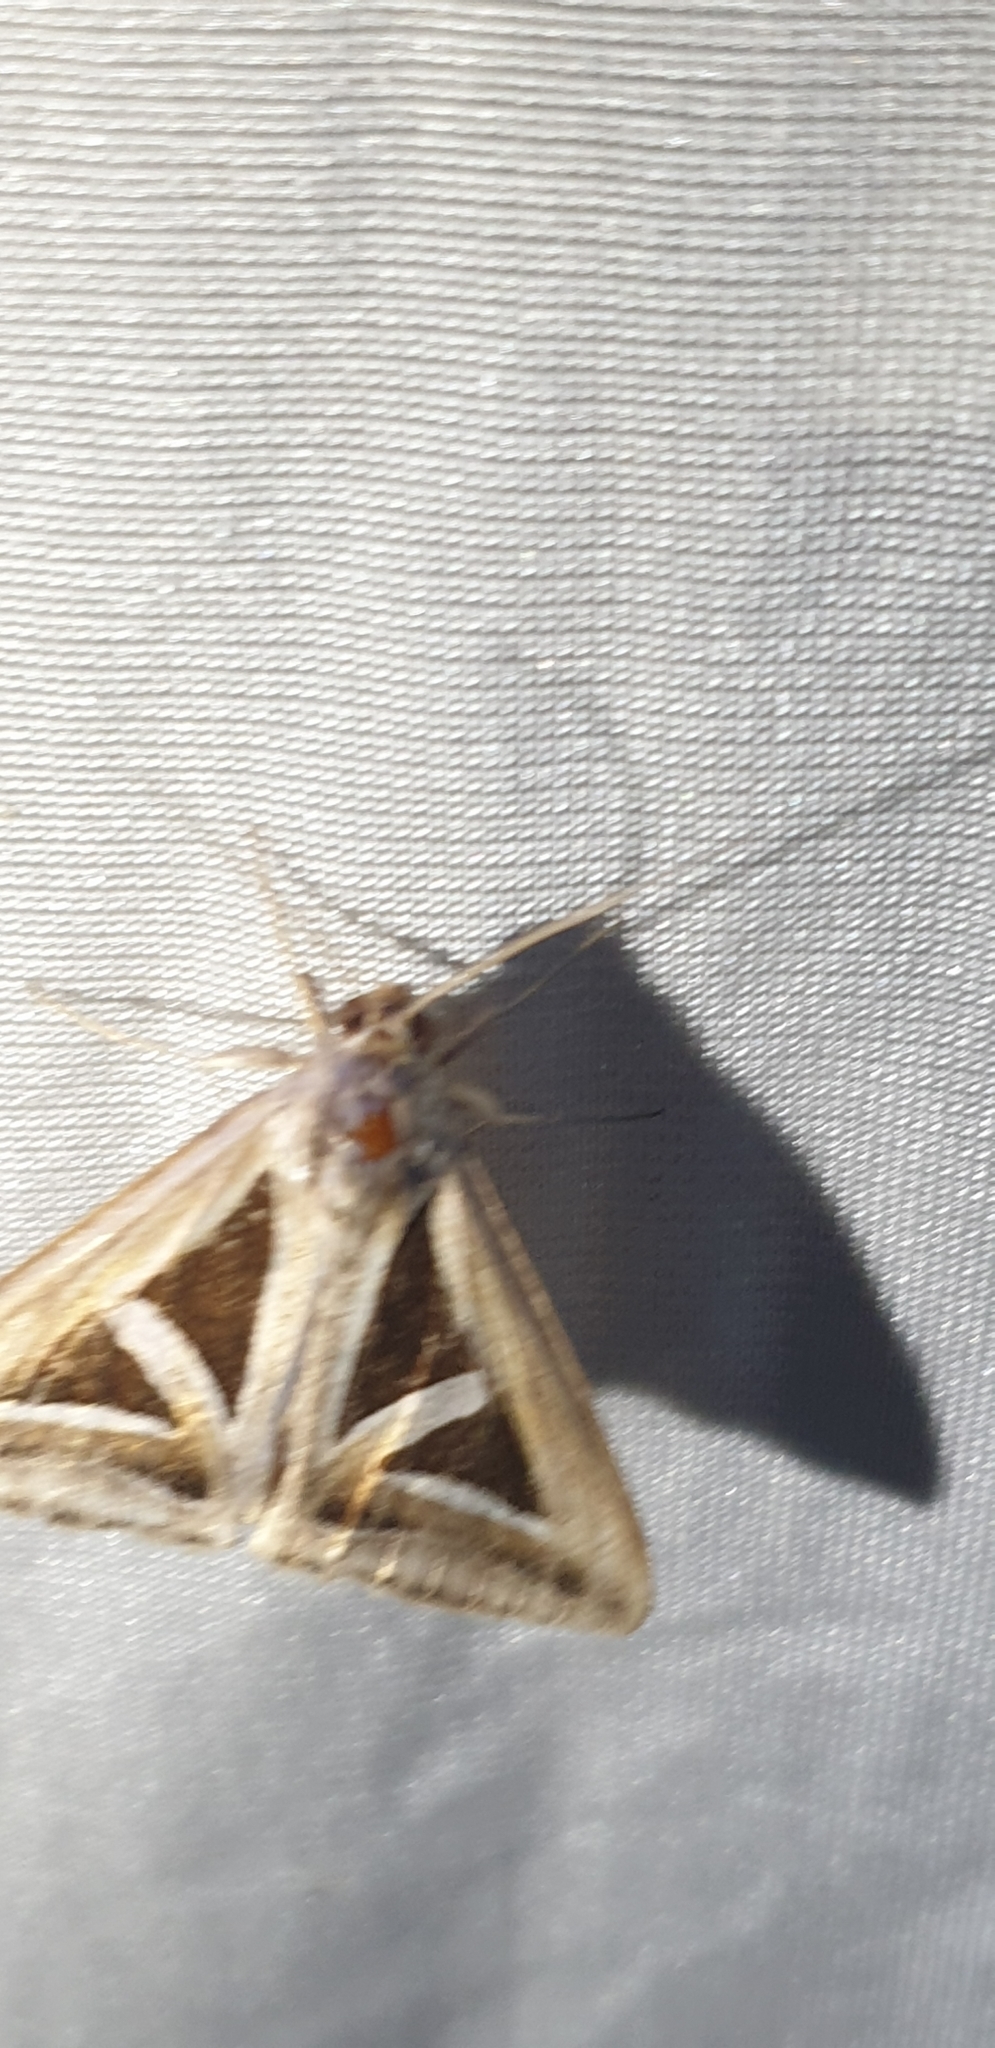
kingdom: Animalia
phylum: Arthropoda
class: Insecta
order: Lepidoptera
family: Erebidae
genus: Trigonodes
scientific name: Trigonodes hyppasia
